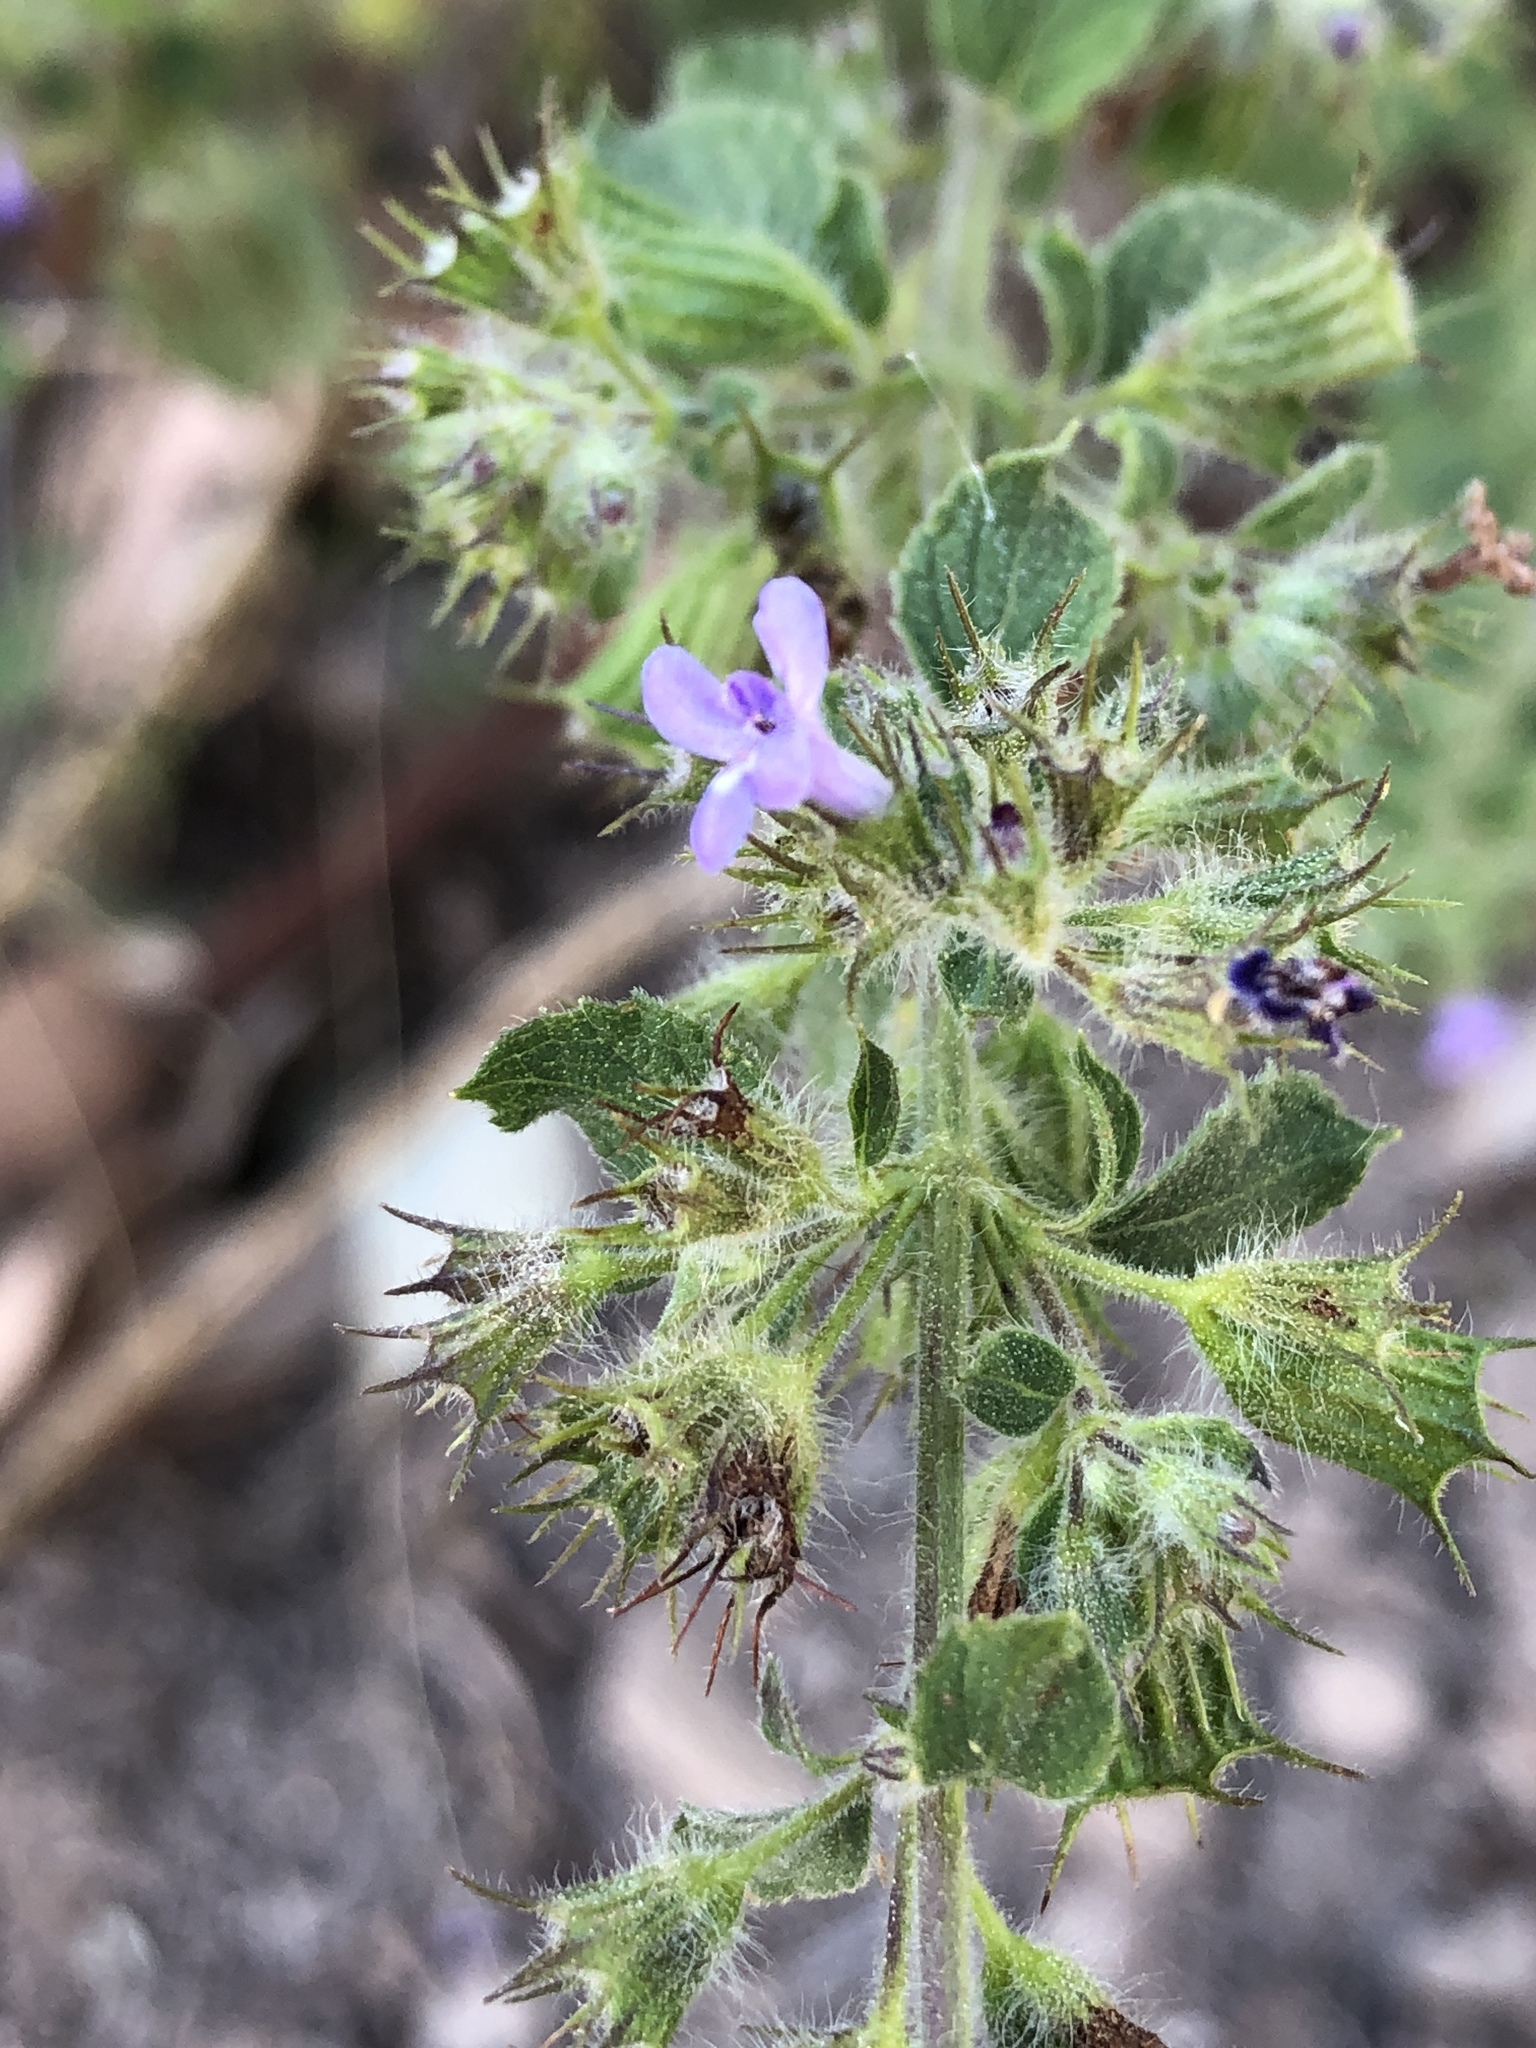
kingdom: Plantae
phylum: Tracheophyta
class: Magnoliopsida
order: Lamiales
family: Lamiaceae
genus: Mesosphaerum
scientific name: Mesosphaerum suaveolens
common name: Pignut
